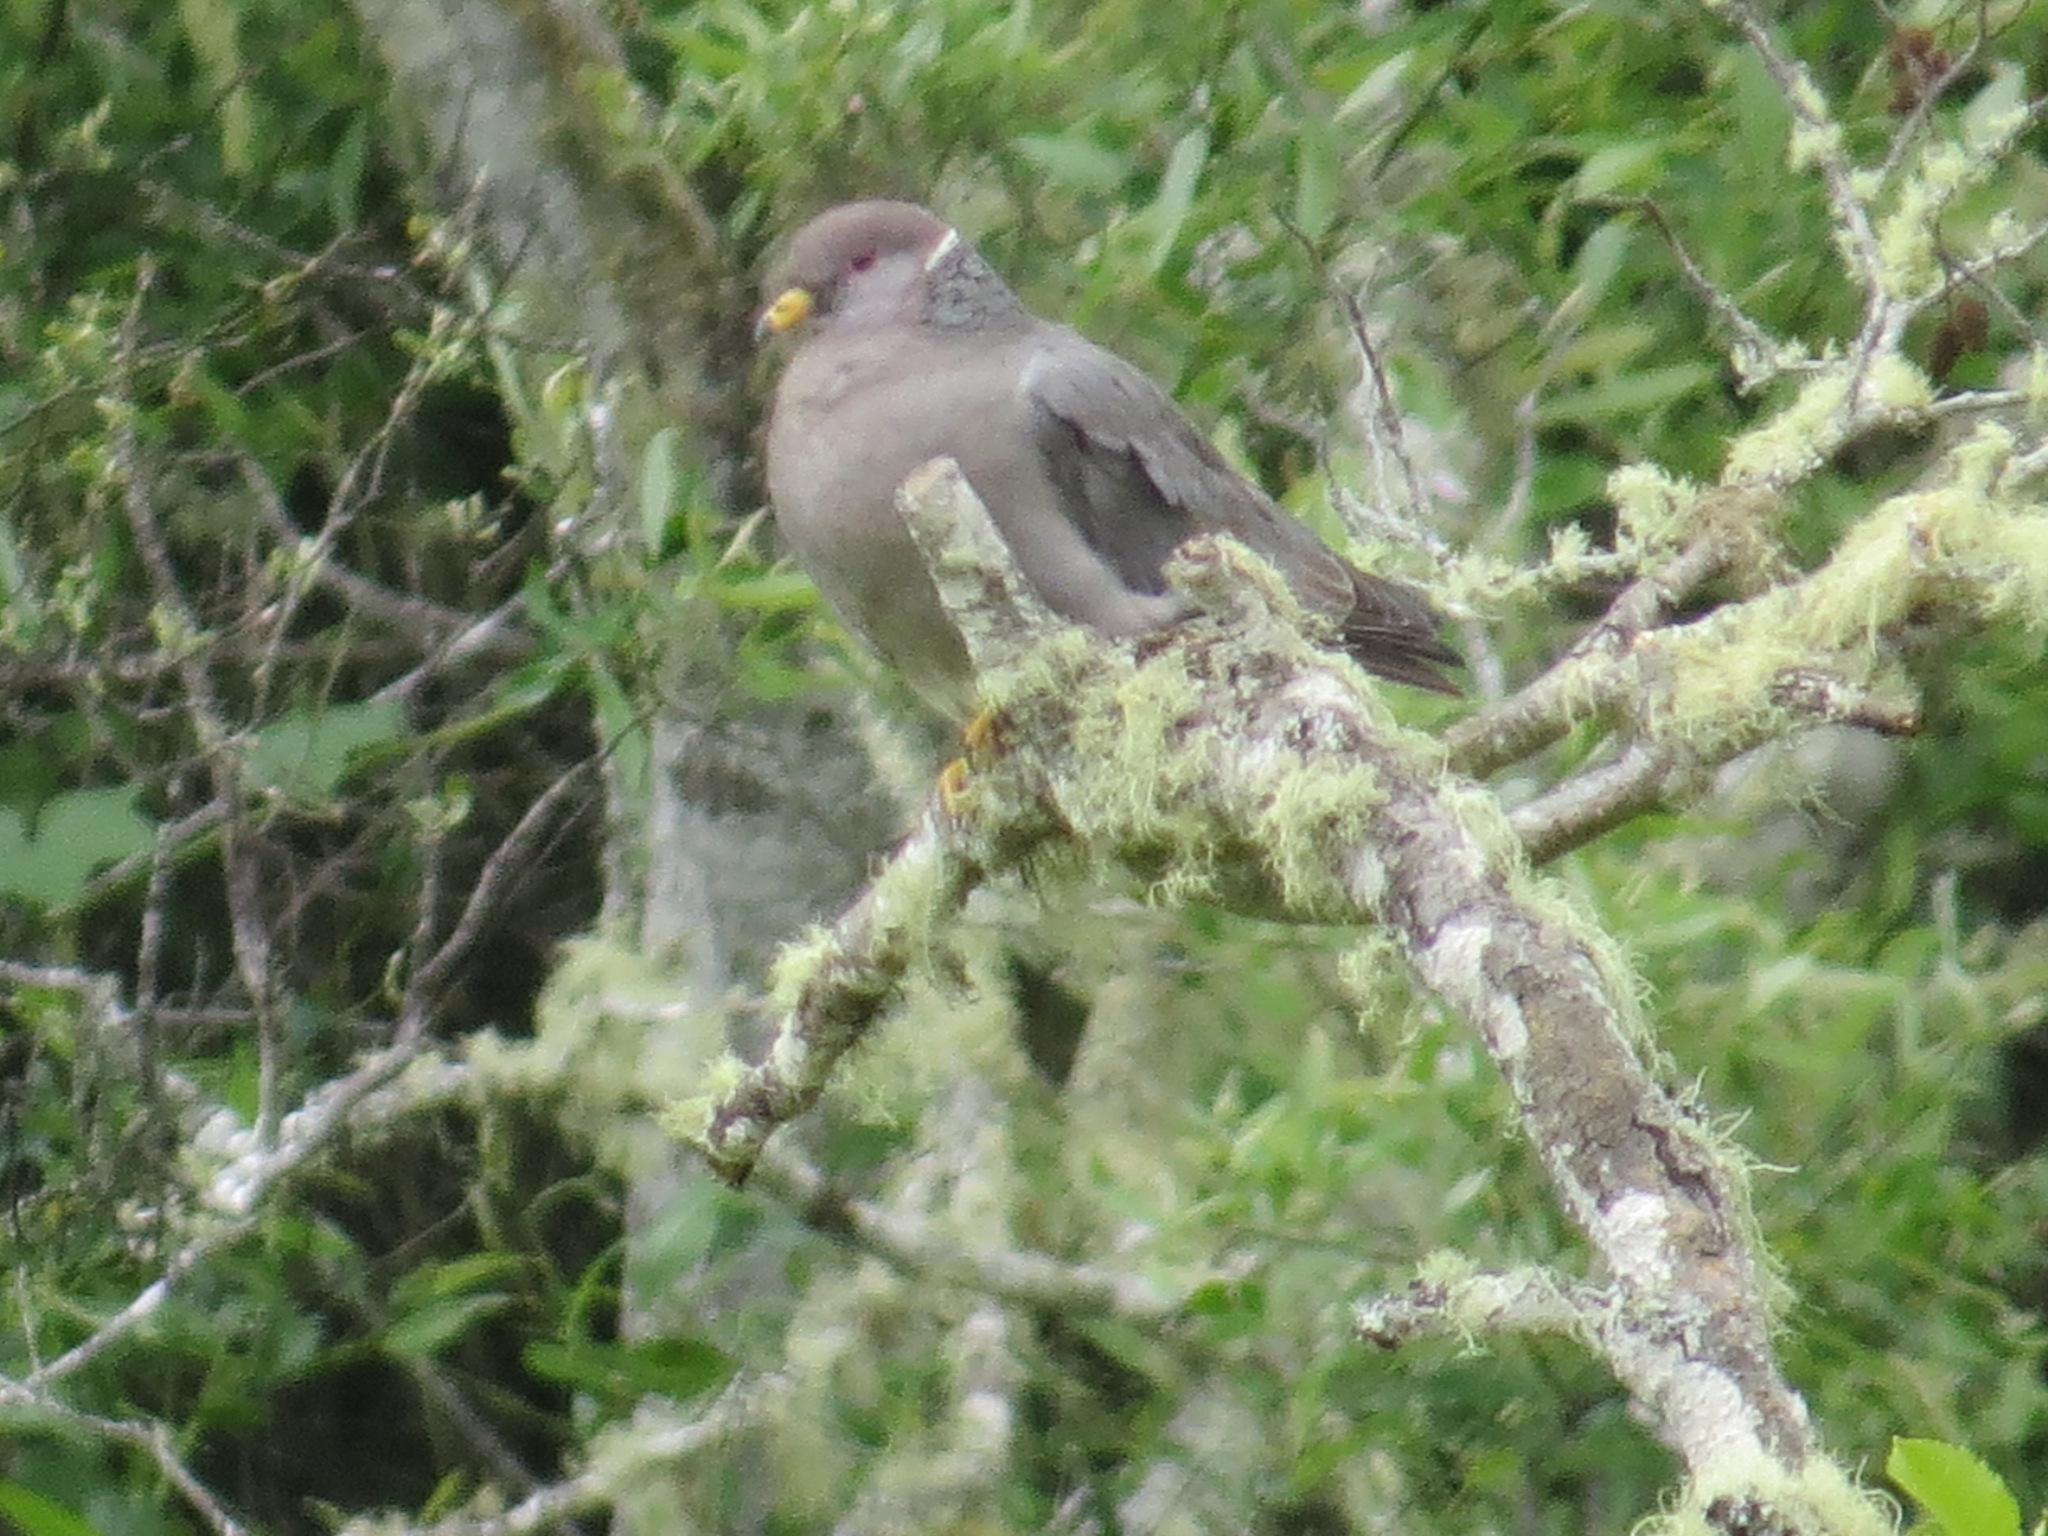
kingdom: Animalia
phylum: Chordata
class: Aves
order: Columbiformes
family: Columbidae
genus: Patagioenas
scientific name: Patagioenas fasciata
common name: Band-tailed pigeon
